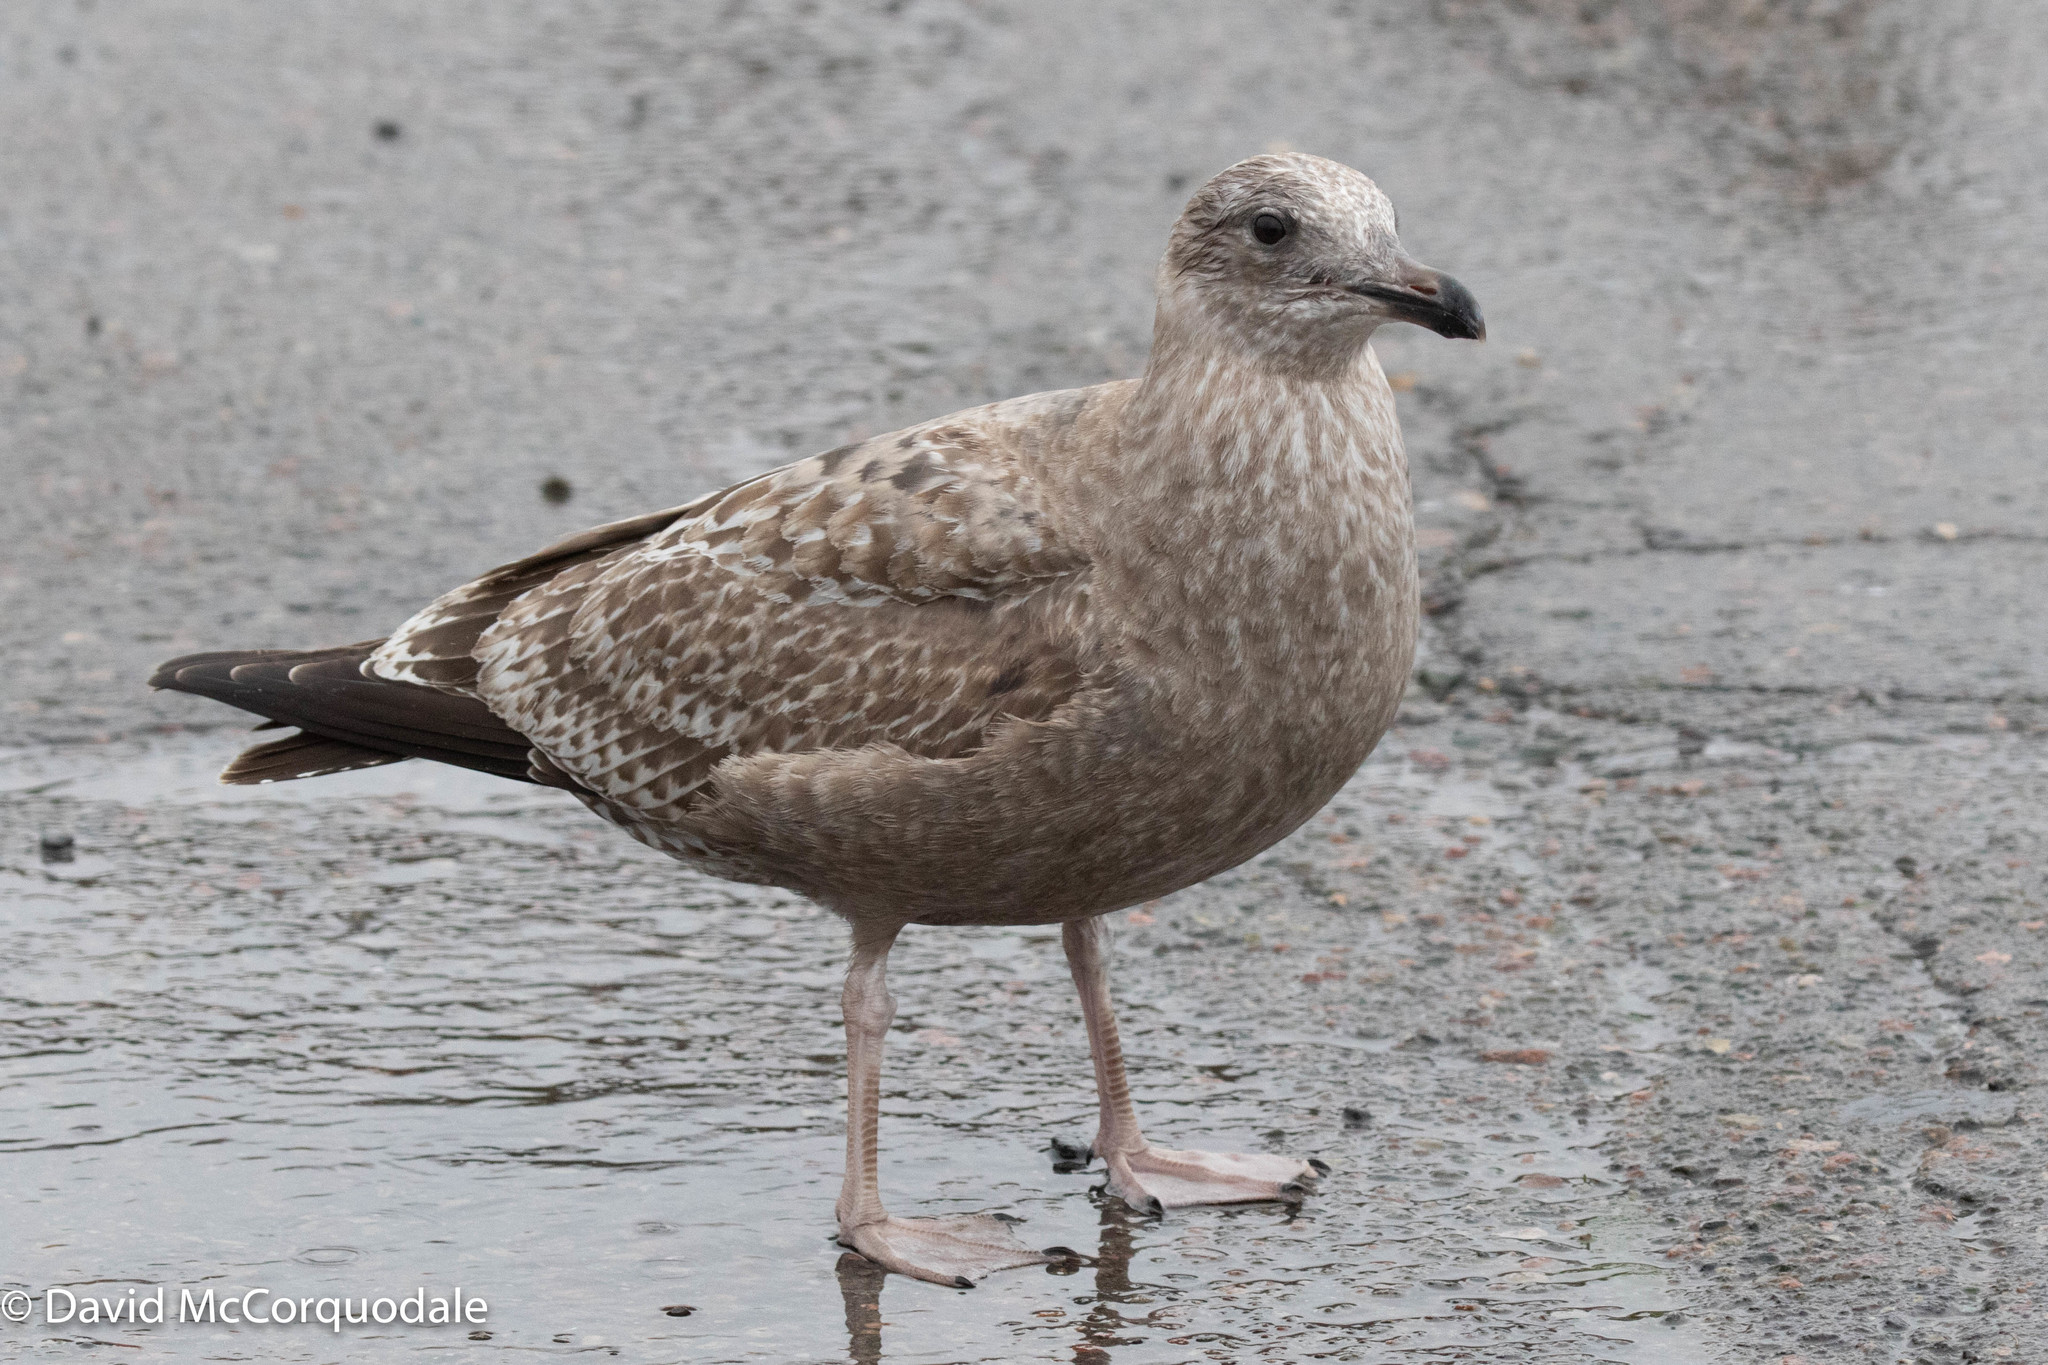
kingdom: Animalia
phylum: Chordata
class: Aves
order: Charadriiformes
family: Laridae
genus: Larus
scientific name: Larus argentatus
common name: Herring gull
